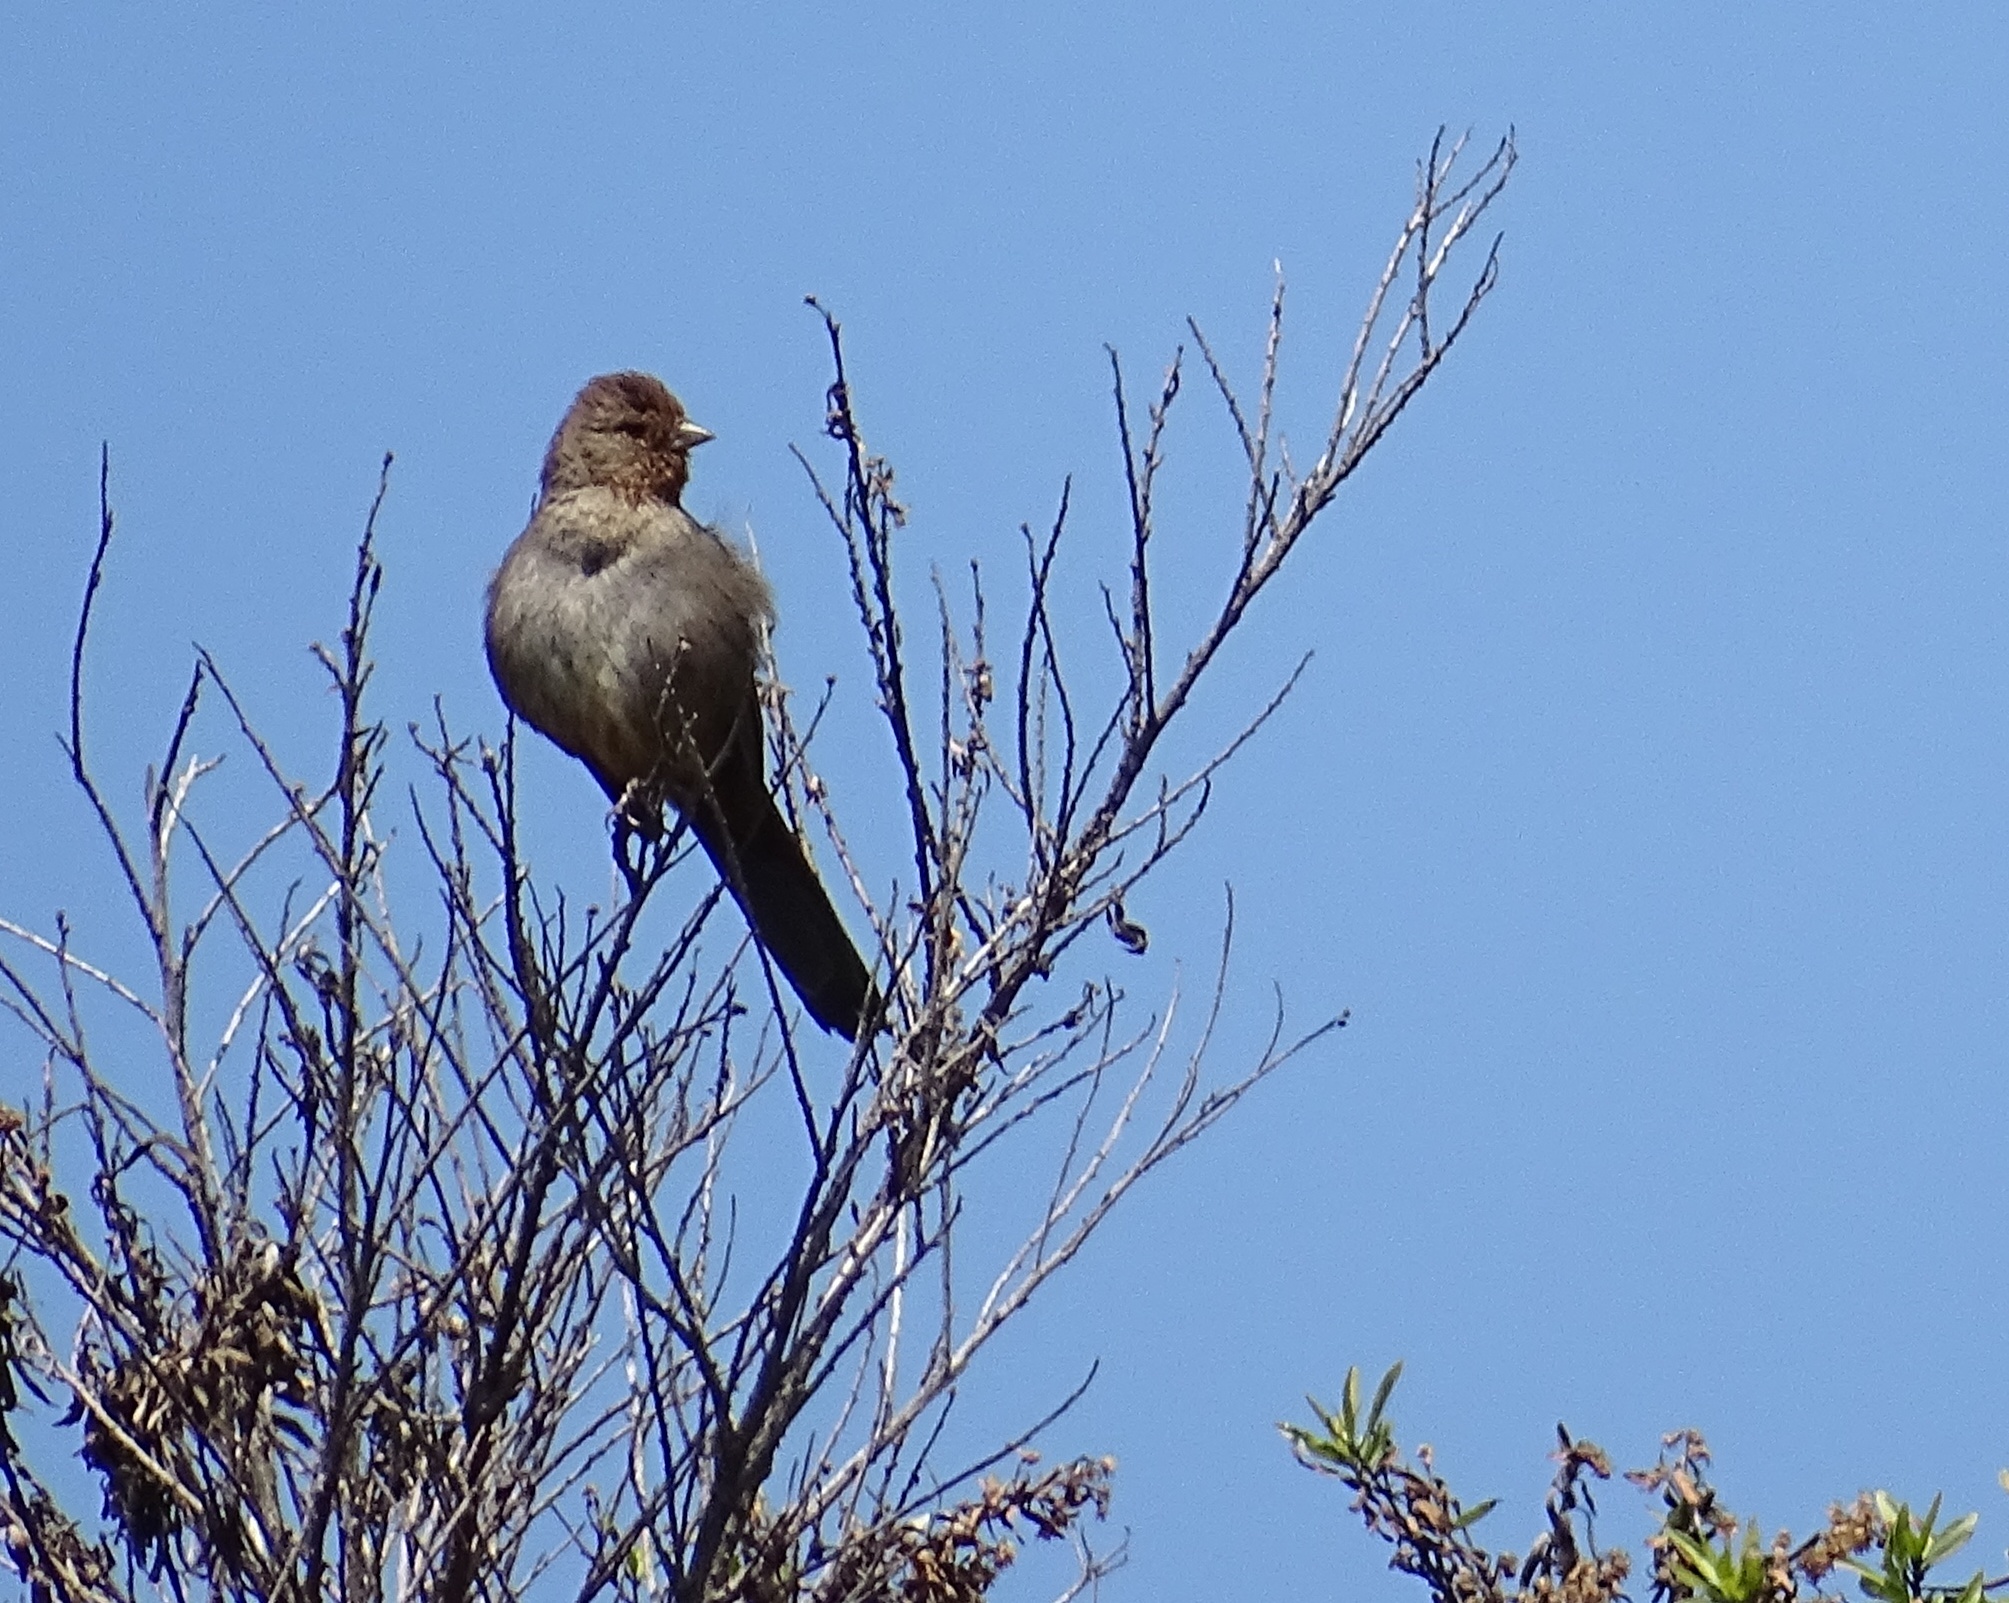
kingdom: Animalia
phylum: Chordata
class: Aves
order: Passeriformes
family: Passerellidae
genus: Melozone
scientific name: Melozone crissalis
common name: California towhee
